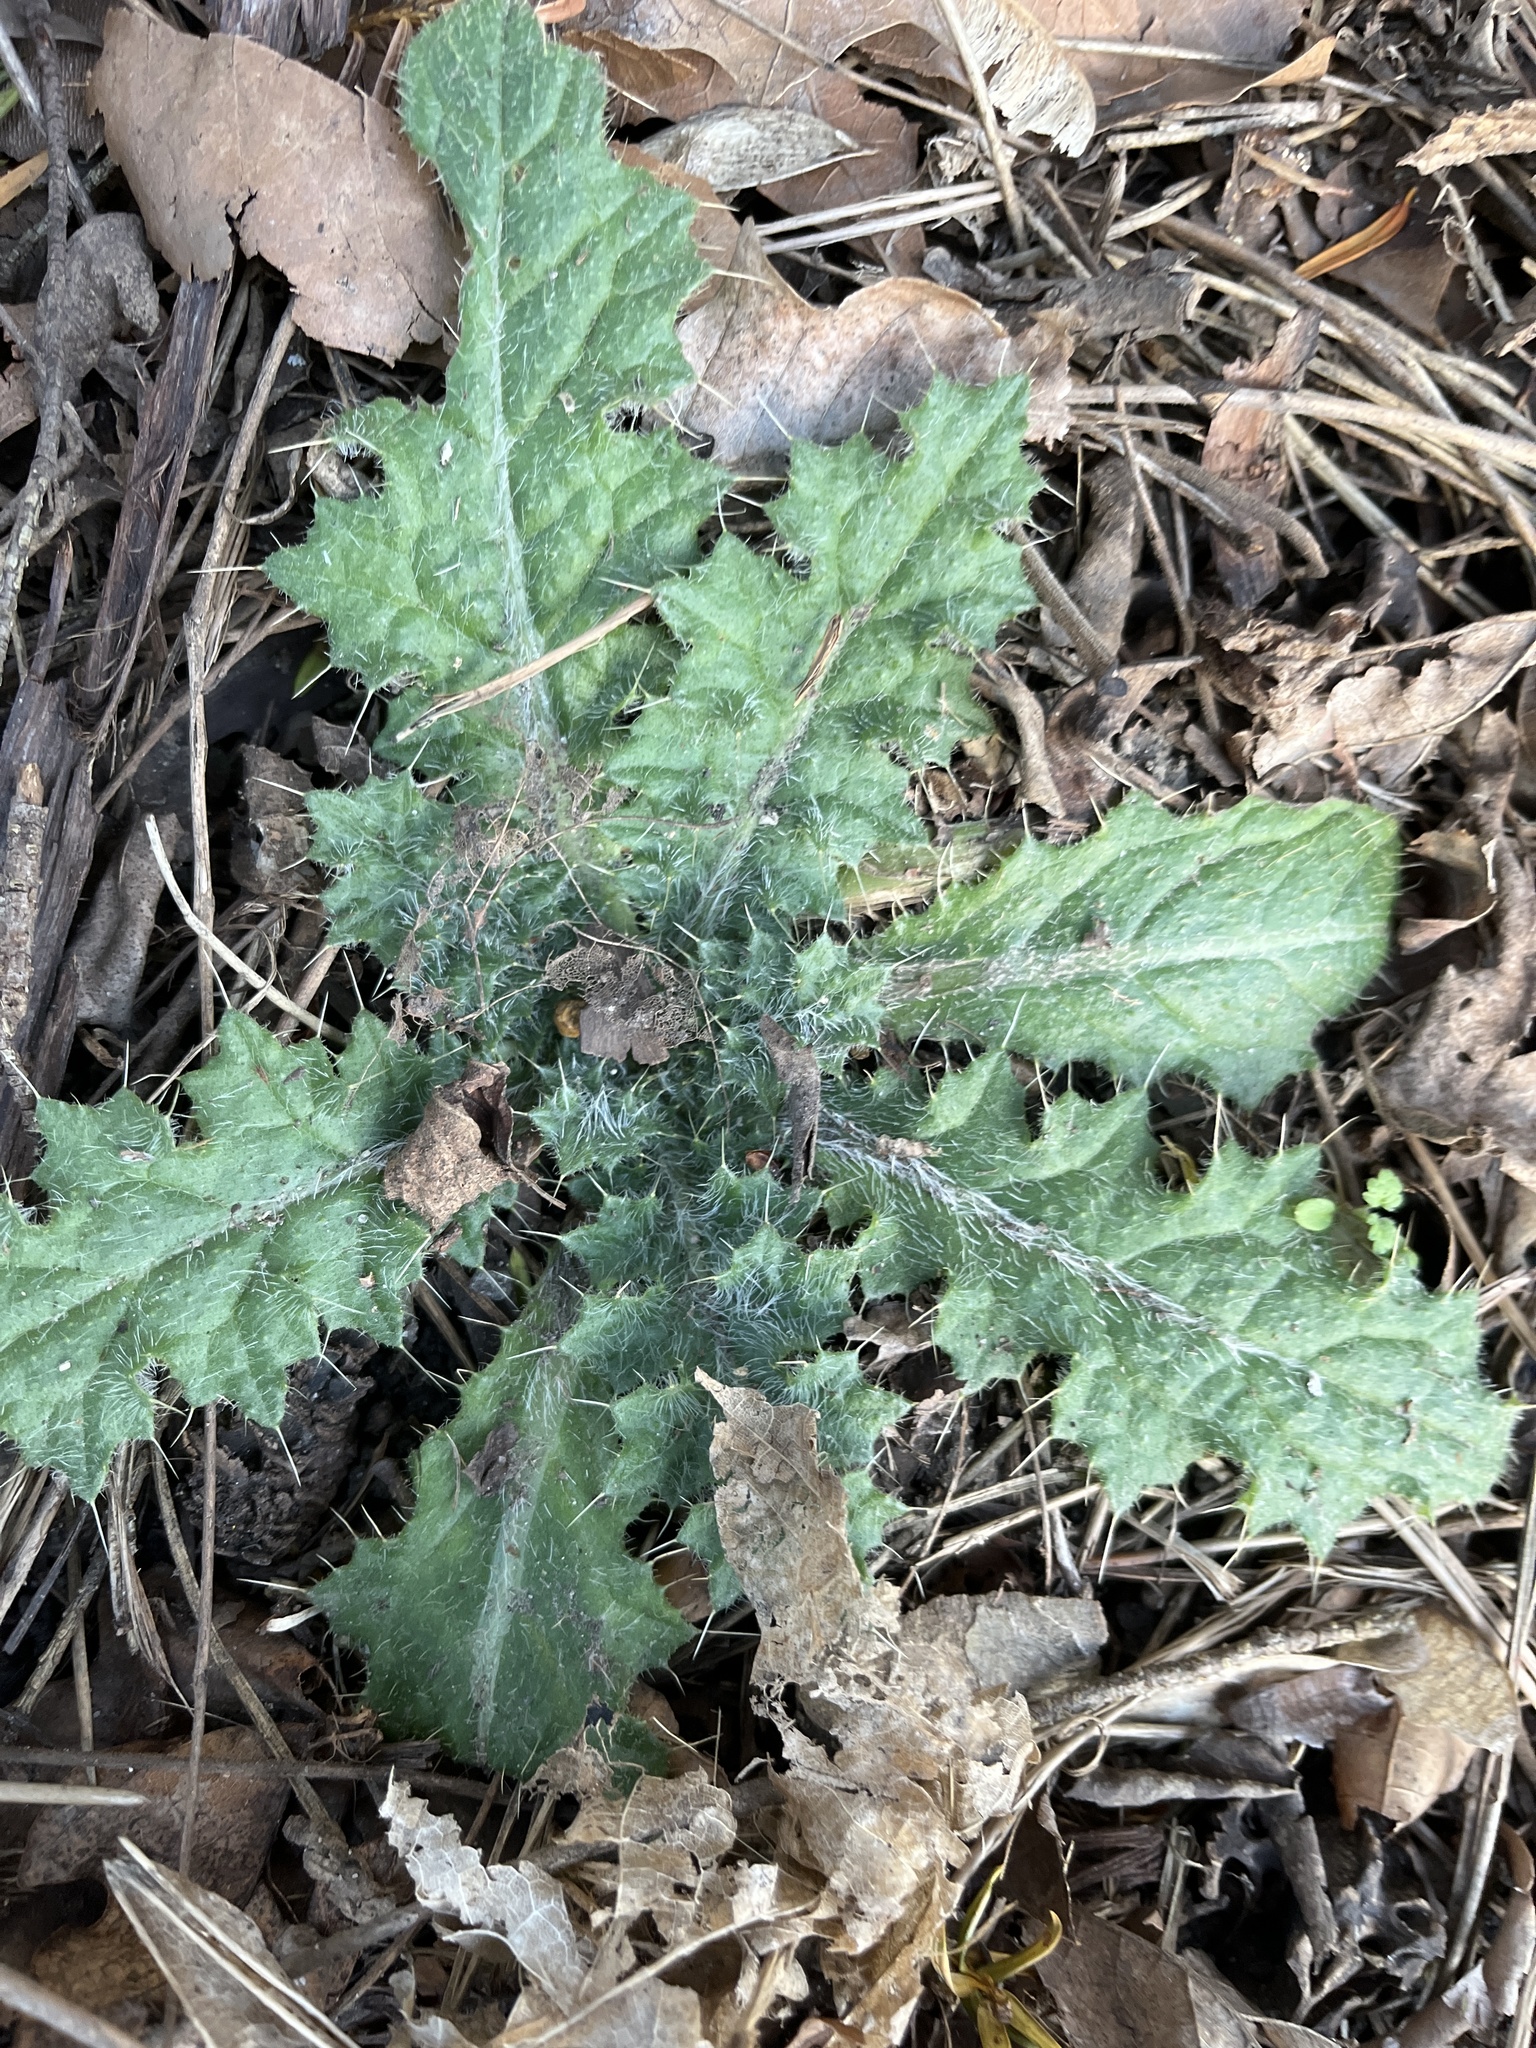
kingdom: Plantae
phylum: Tracheophyta
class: Magnoliopsida
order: Asterales
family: Asteraceae
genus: Cirsium
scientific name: Cirsium vulgare
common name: Bull thistle
